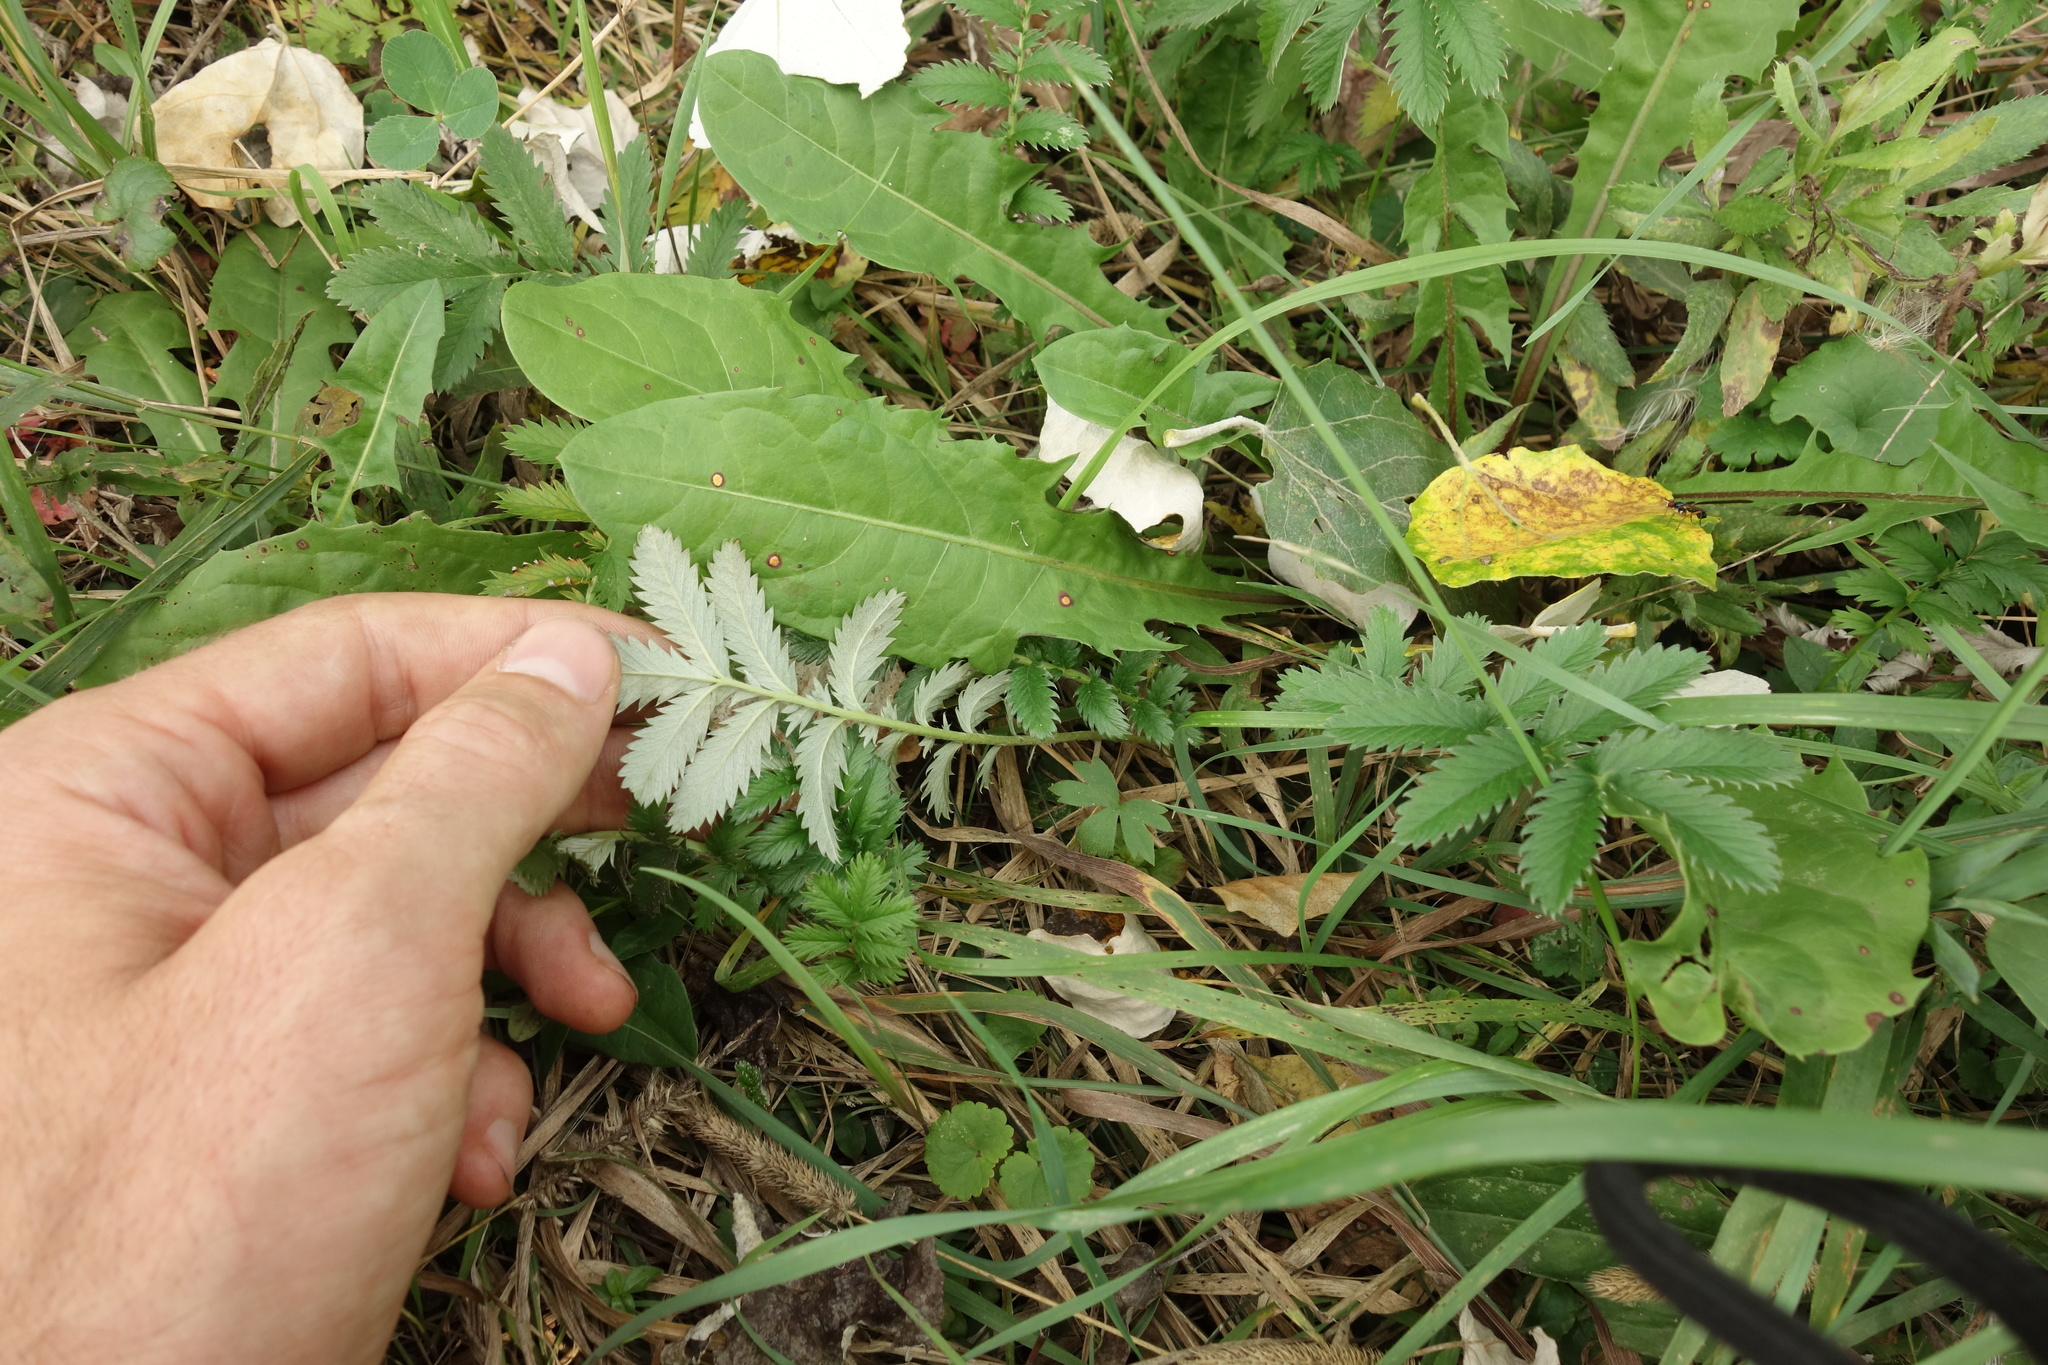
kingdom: Plantae
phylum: Tracheophyta
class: Magnoliopsida
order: Rosales
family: Rosaceae
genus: Argentina
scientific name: Argentina anserina
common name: Common silverweed
